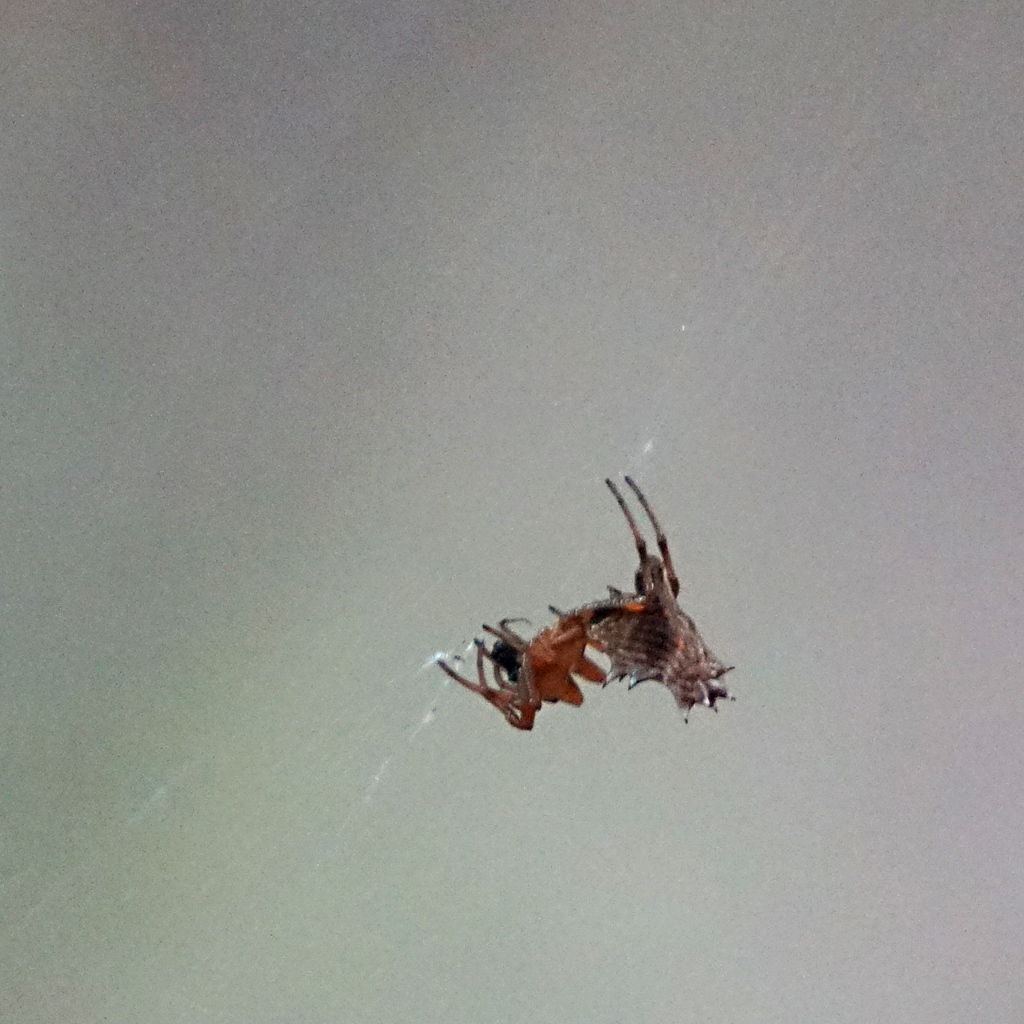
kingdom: Animalia
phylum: Arthropoda
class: Arachnida
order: Araneae
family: Araneidae
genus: Micrathena
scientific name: Micrathena gracilis
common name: Orb weavers
